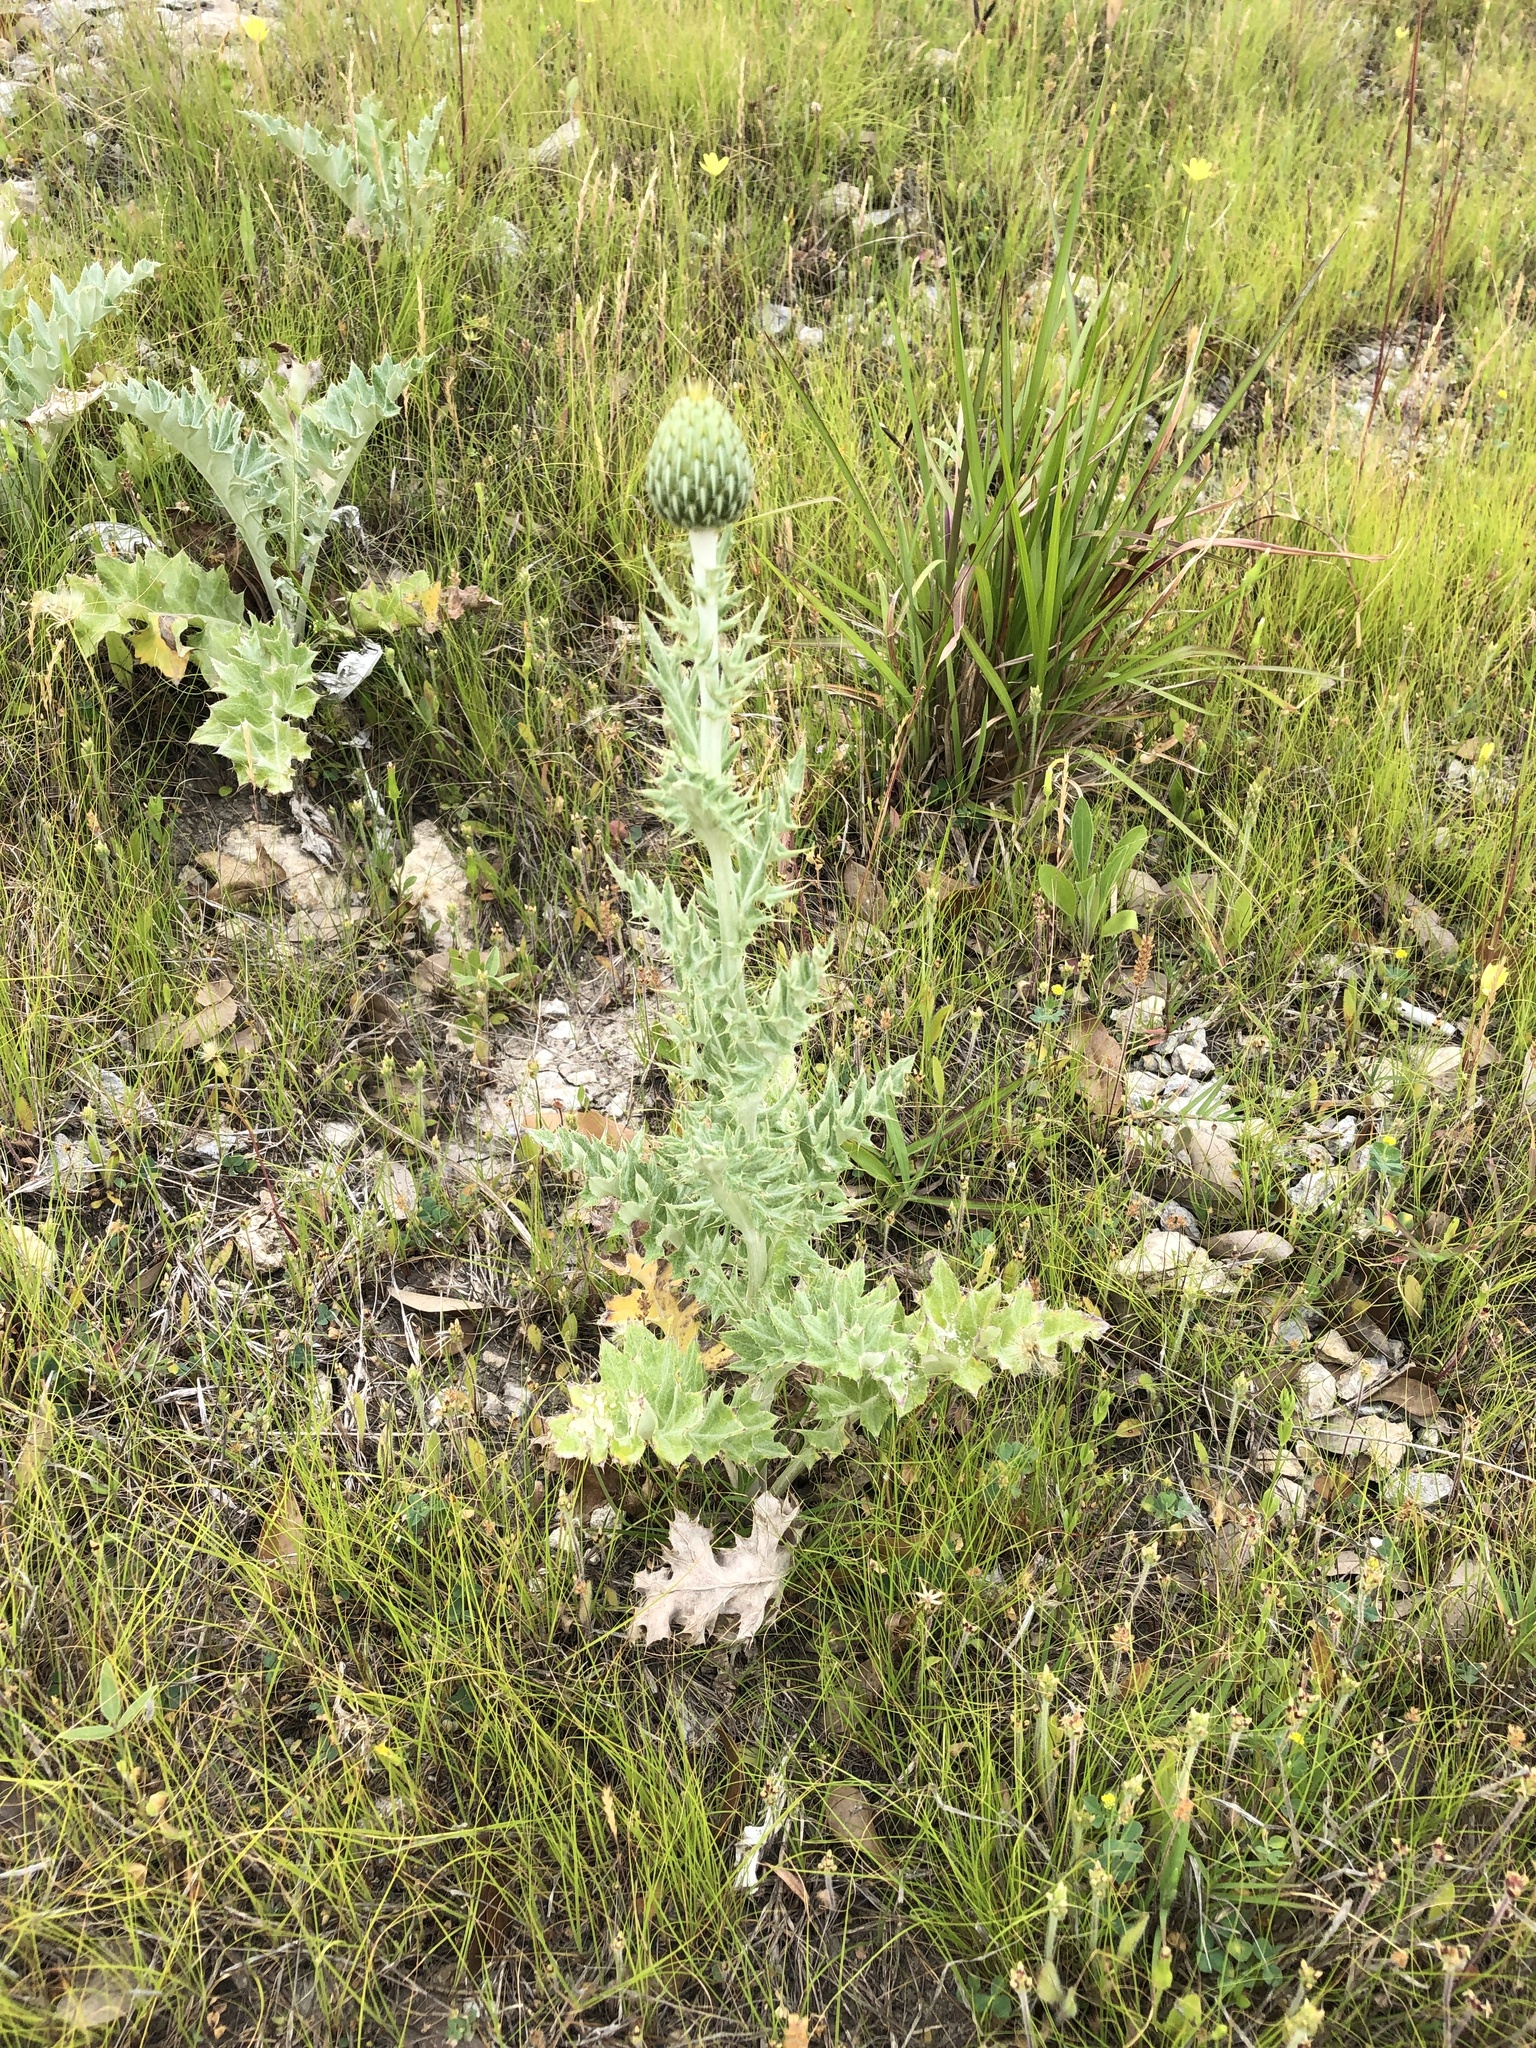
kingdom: Plantae
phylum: Tracheophyta
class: Magnoliopsida
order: Asterales
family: Asteraceae
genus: Cirsium
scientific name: Cirsium undulatum
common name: Pasture thistle
